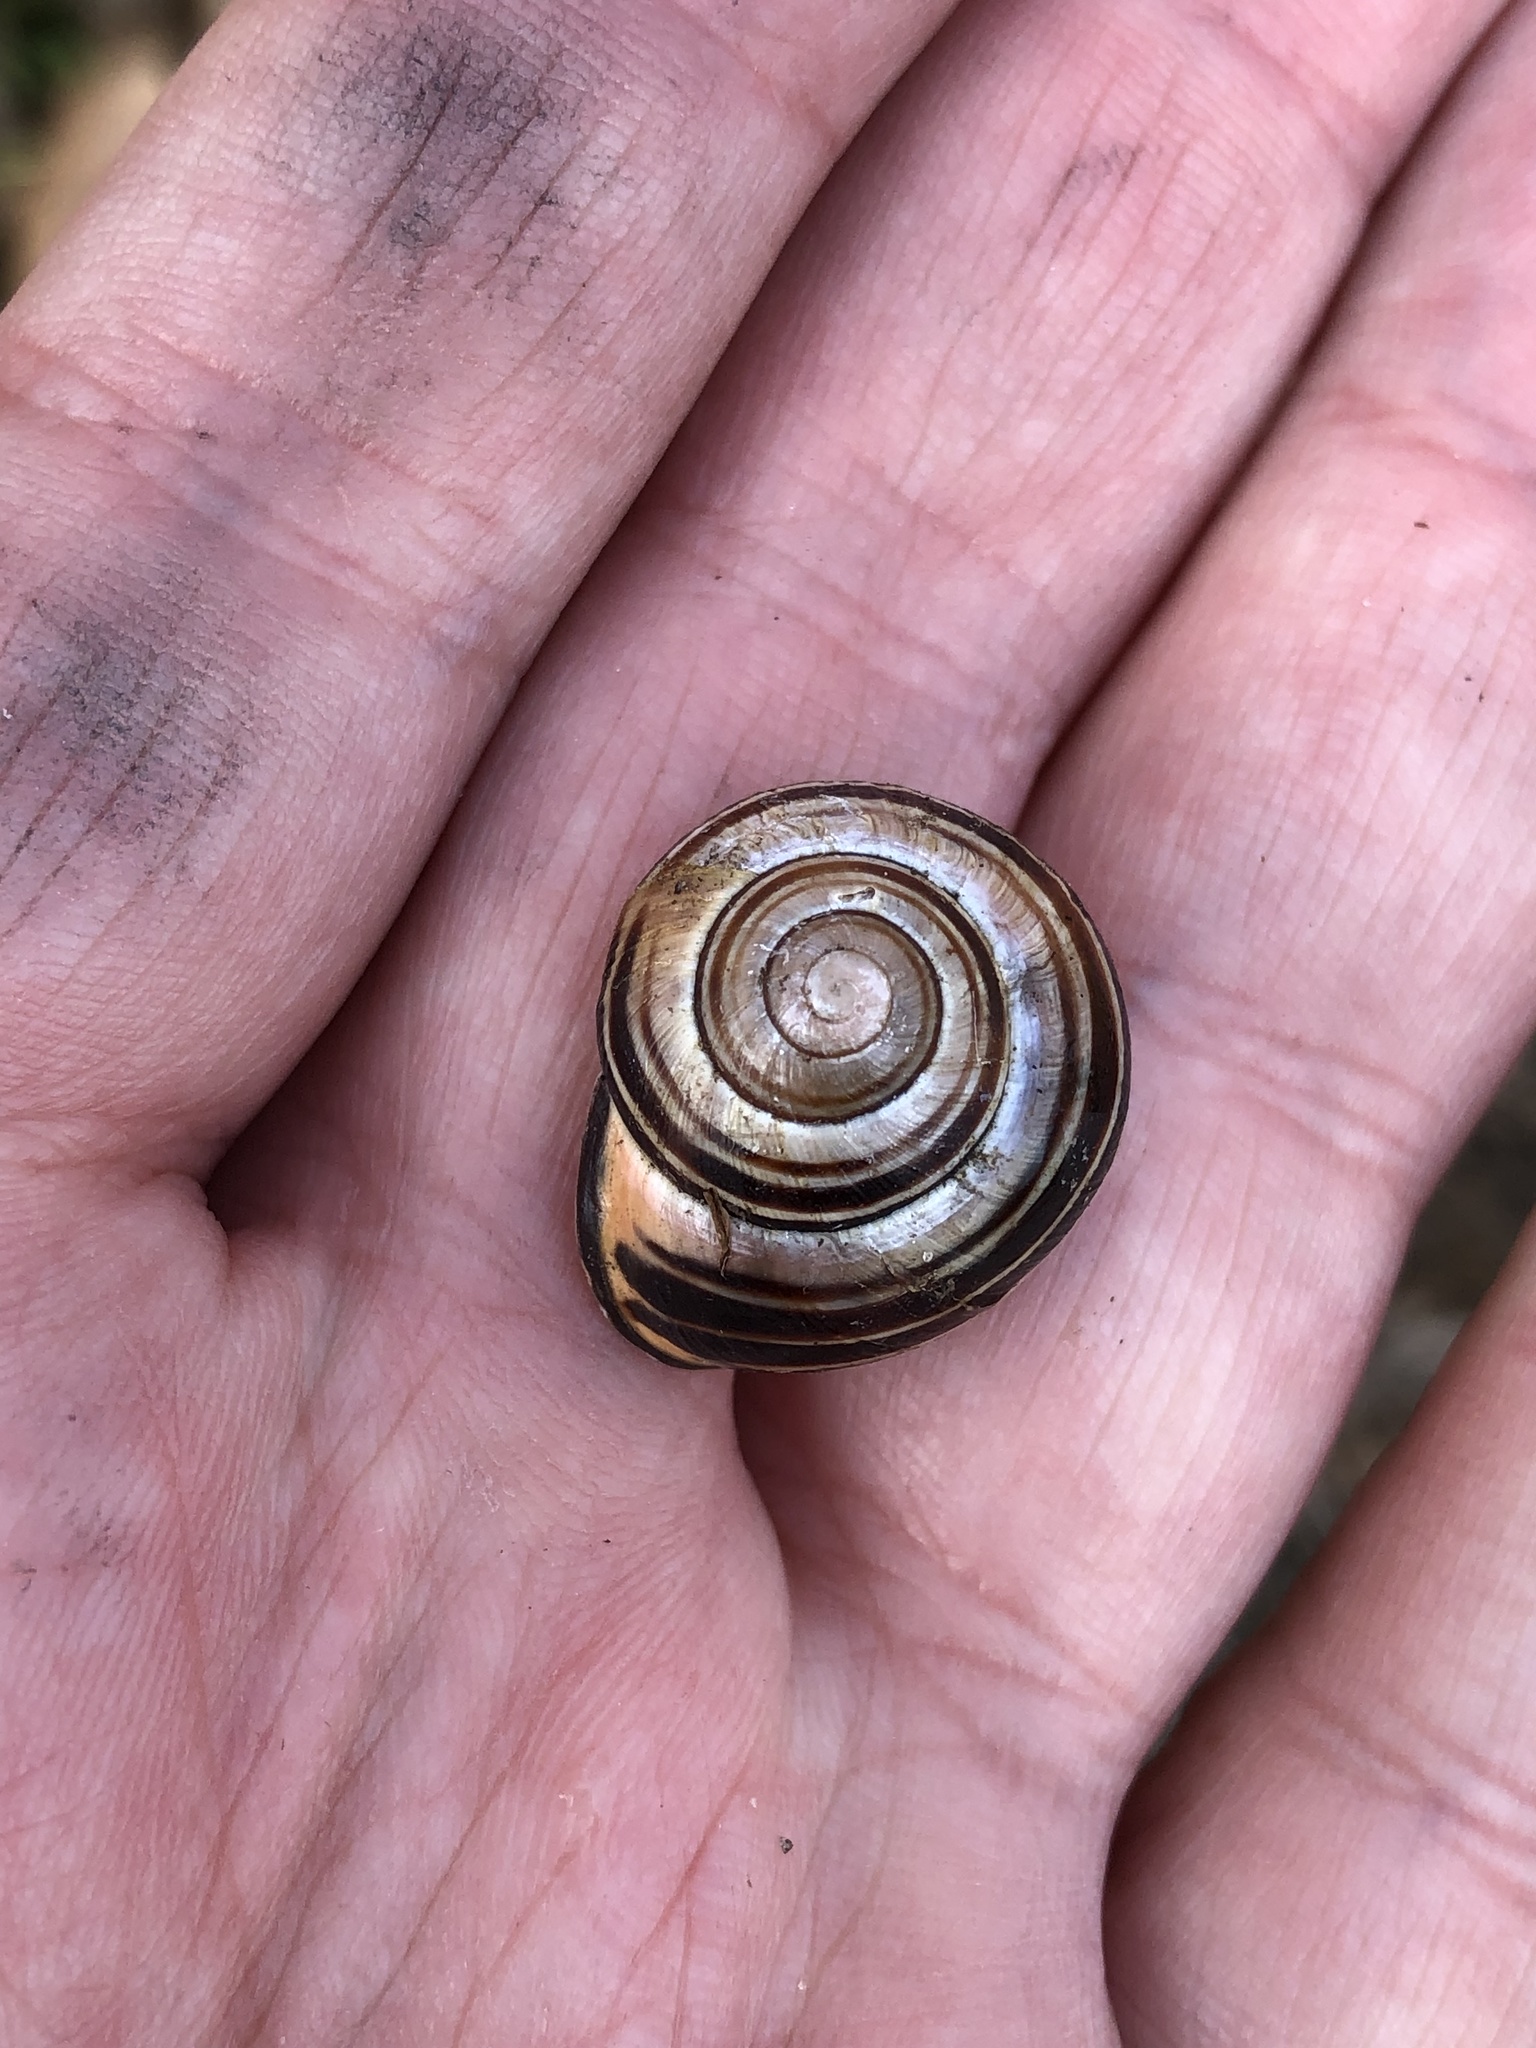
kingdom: Animalia
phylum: Mollusca
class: Gastropoda
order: Stylommatophora
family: Helicidae
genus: Cepaea
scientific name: Cepaea nemoralis
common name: Grovesnail
